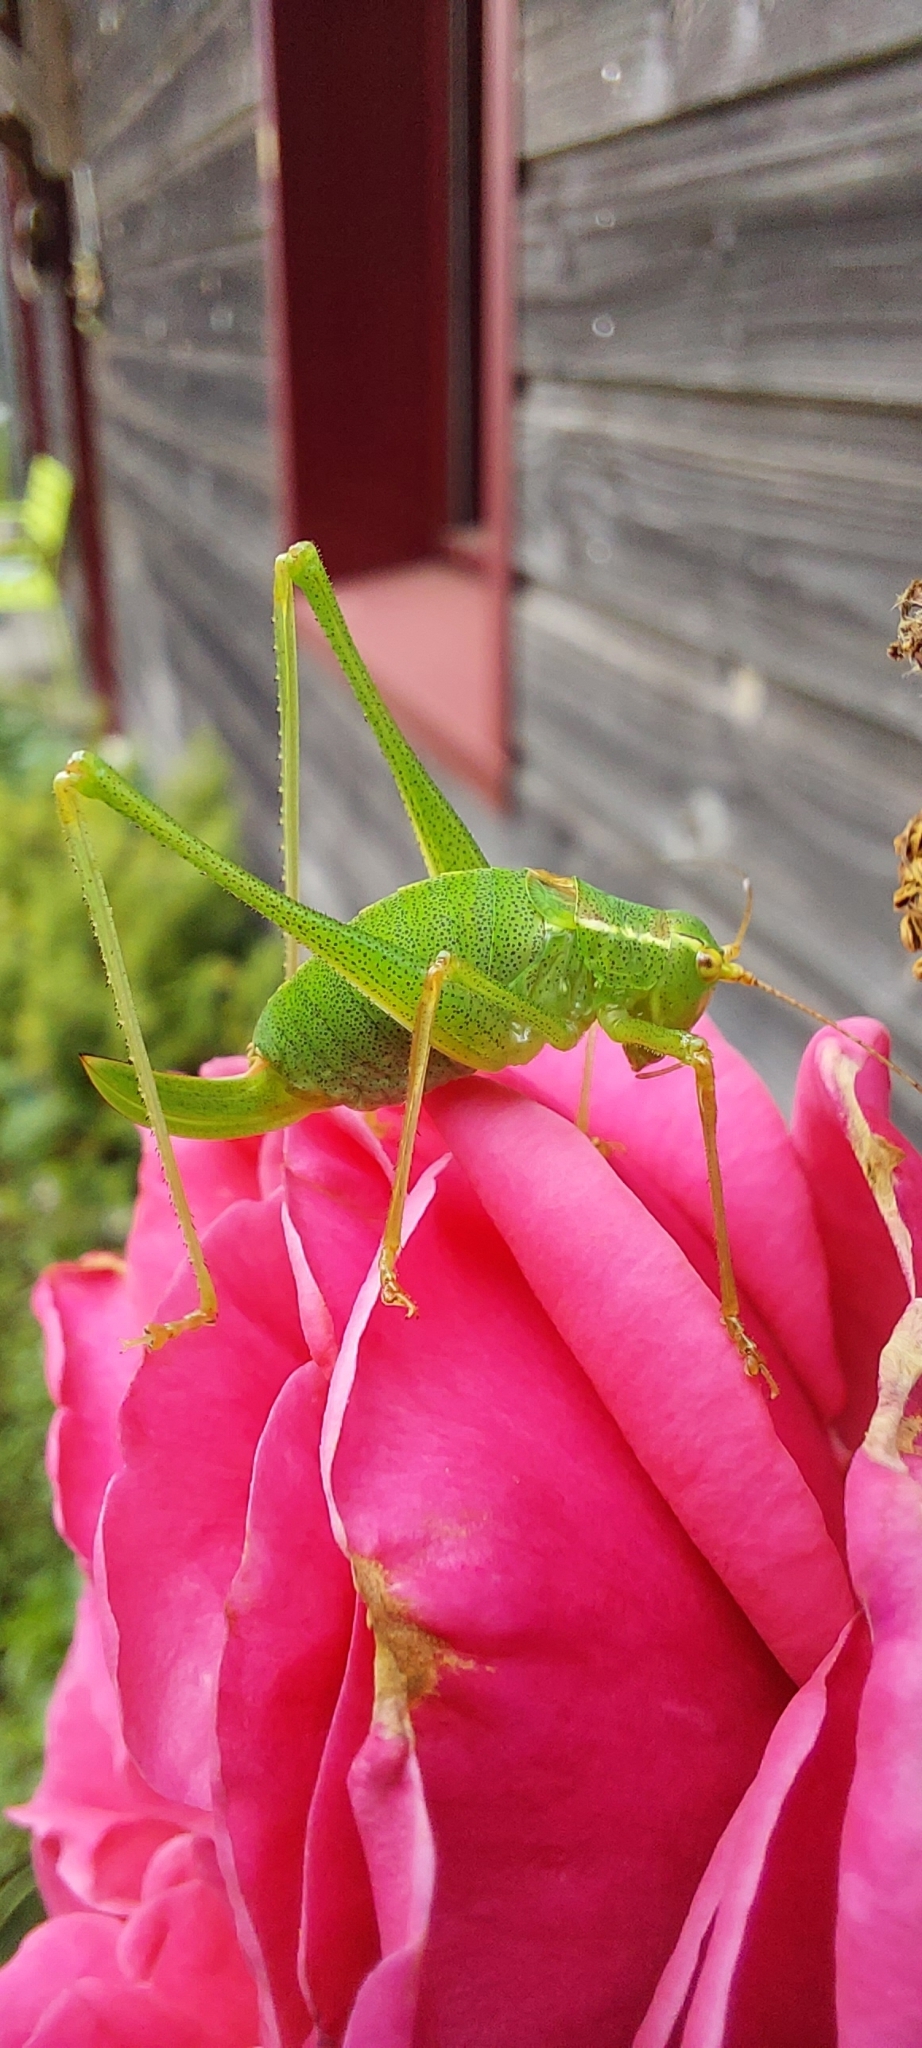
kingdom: Animalia
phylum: Arthropoda
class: Insecta
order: Orthoptera
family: Tettigoniidae
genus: Leptophyes
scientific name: Leptophyes punctatissima
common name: Speckled bush-cricket
